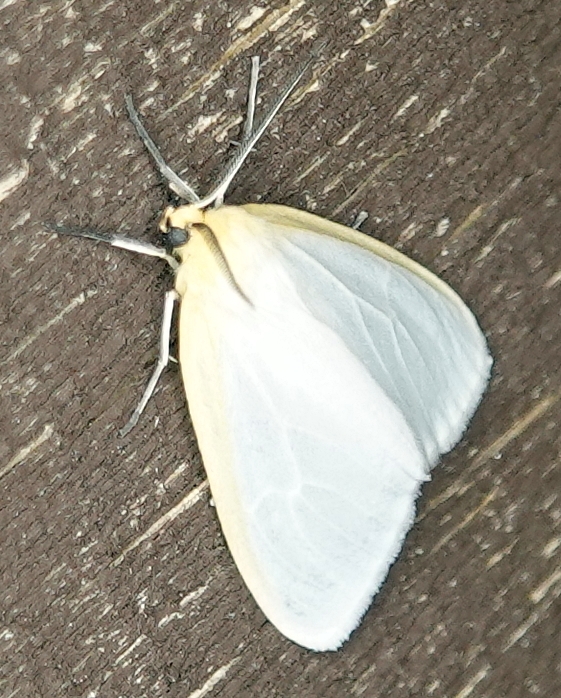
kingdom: Animalia
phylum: Arthropoda
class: Insecta
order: Lepidoptera
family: Erebidae
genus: Cycnia
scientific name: Cycnia tenera
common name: Delicate cycnia moth
